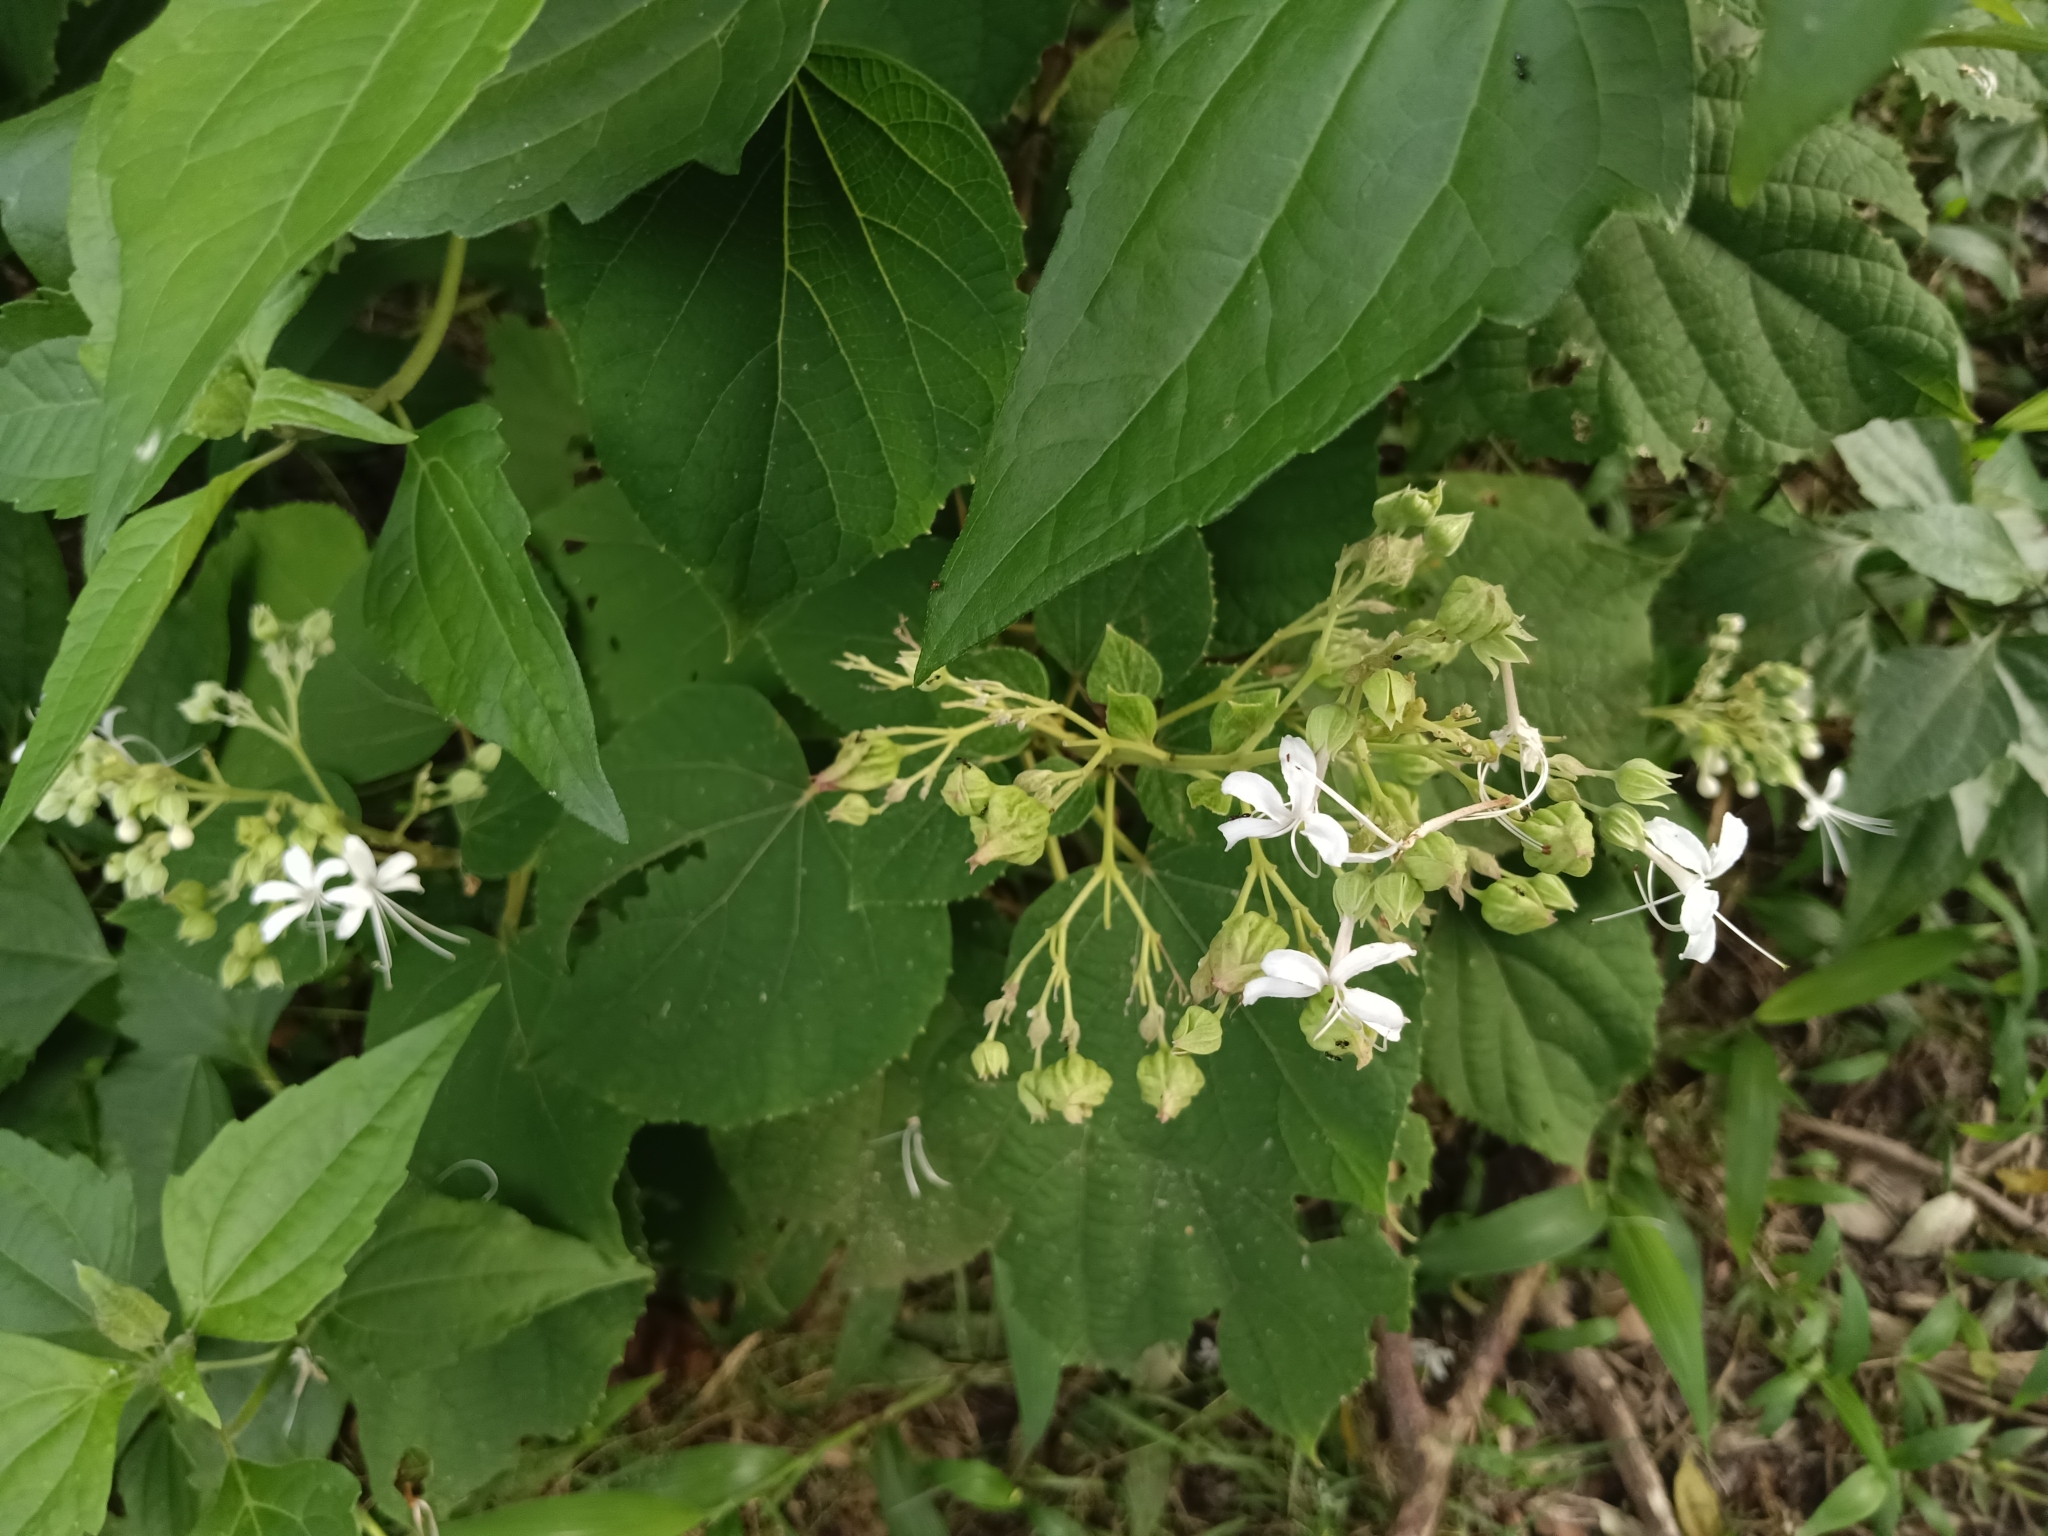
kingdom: Plantae
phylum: Tracheophyta
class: Magnoliopsida
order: Lamiales
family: Lamiaceae
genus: Clerodendrum
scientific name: Clerodendrum infortunatum
